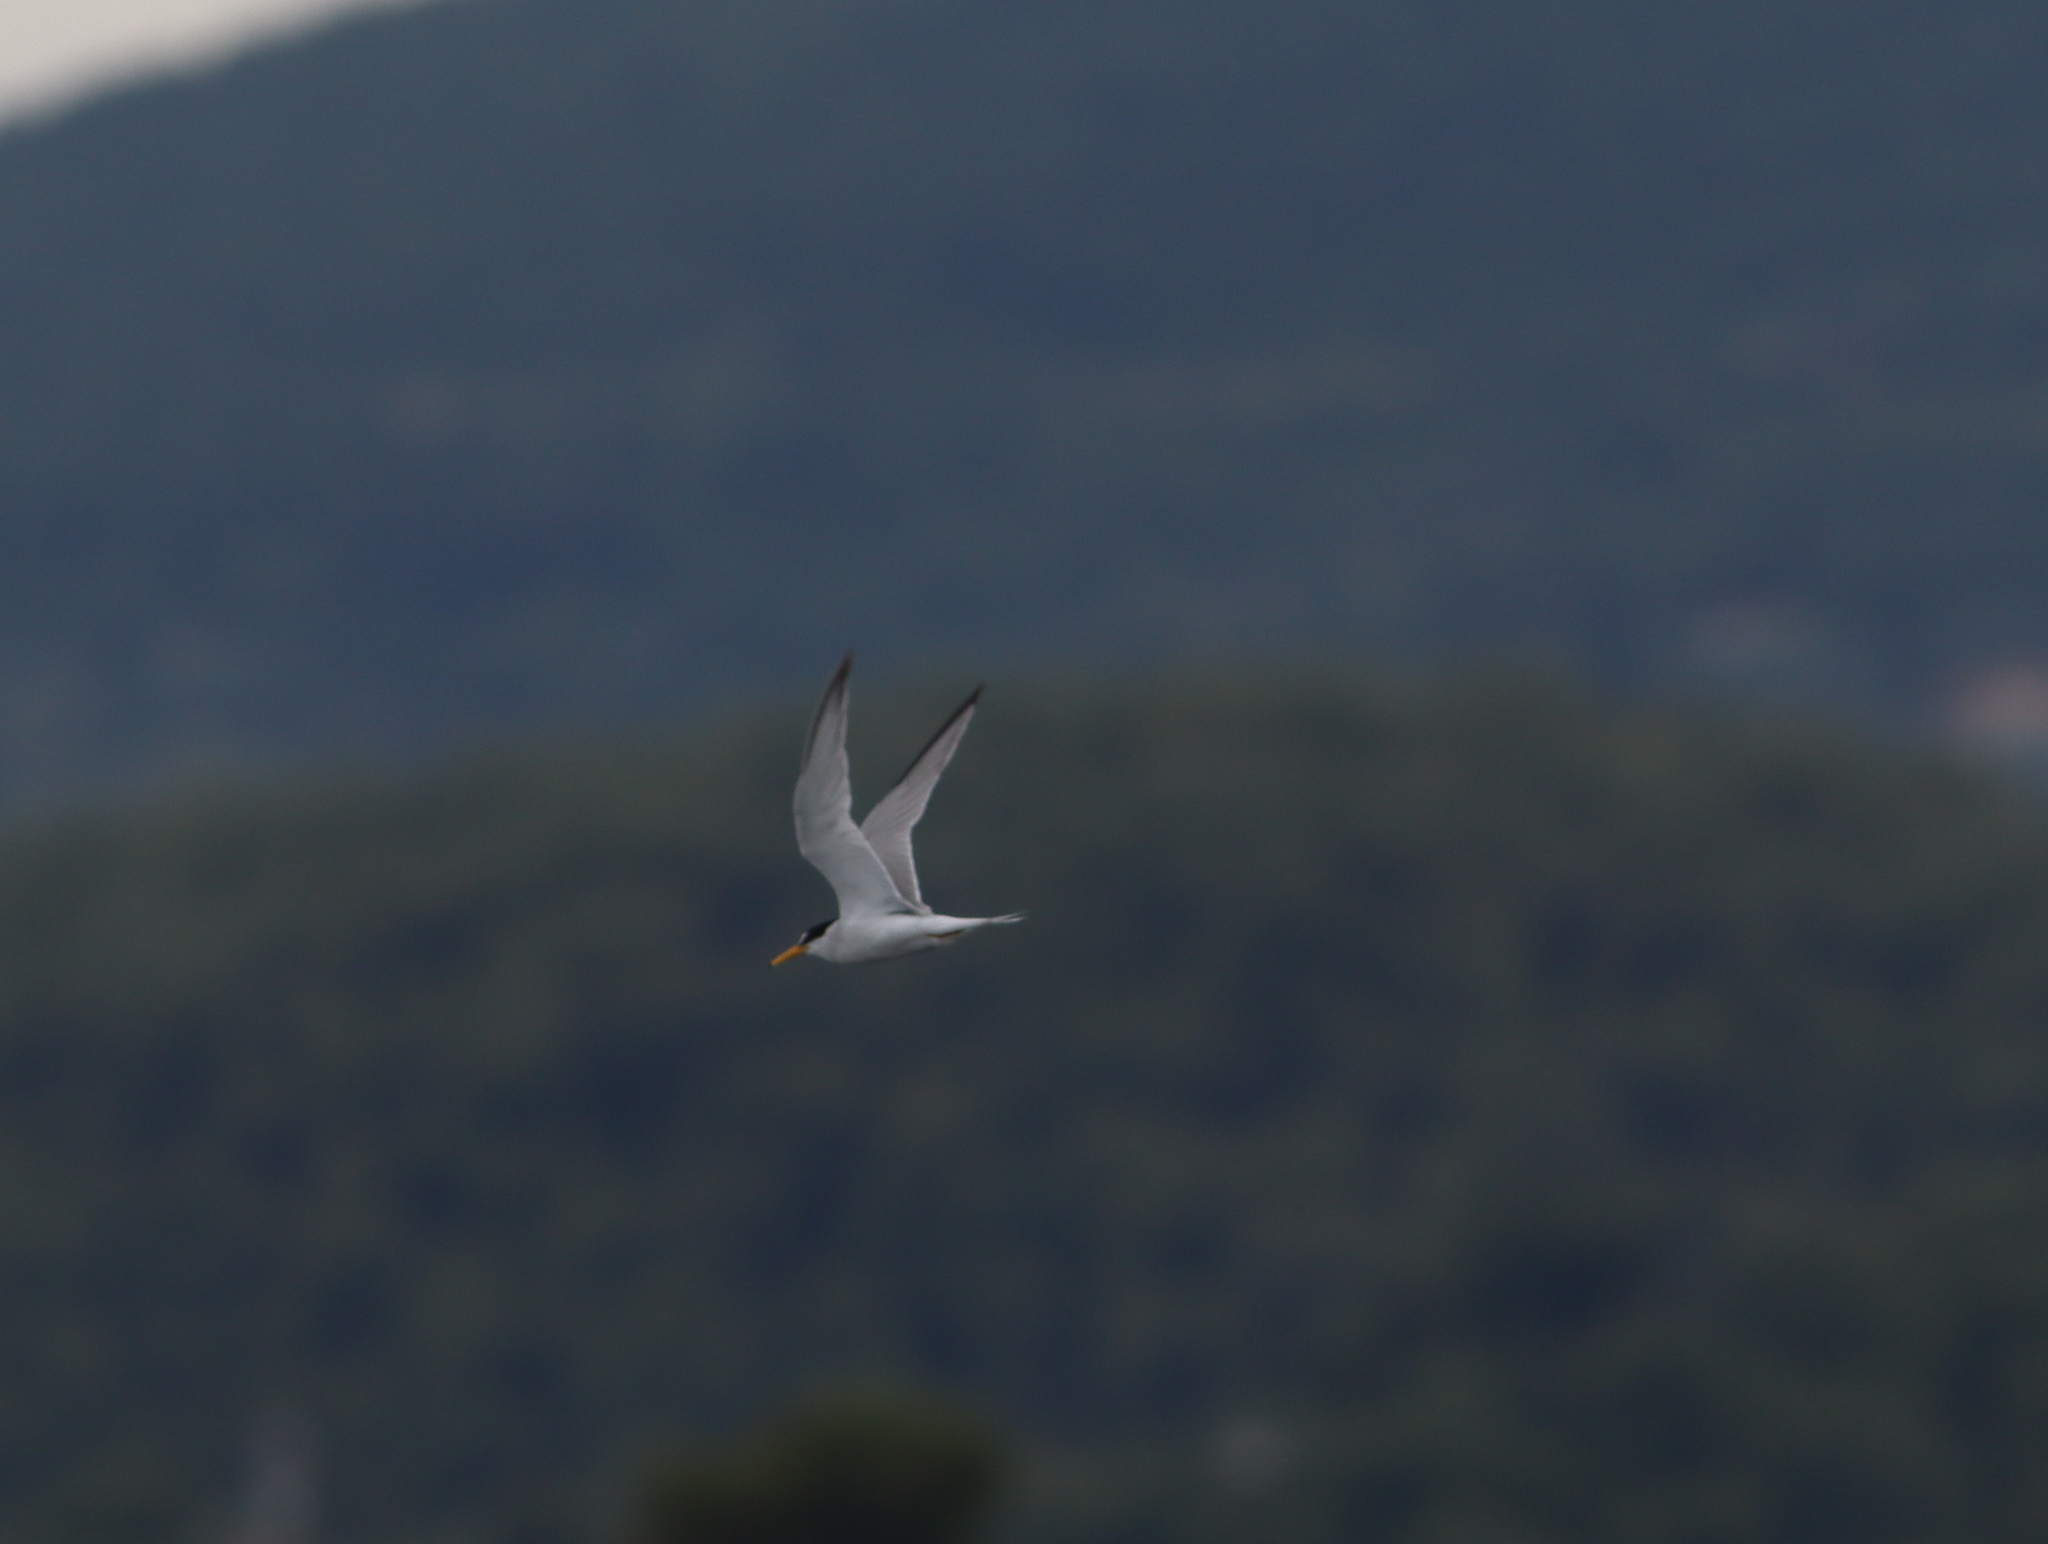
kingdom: Animalia
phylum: Chordata
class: Aves
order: Charadriiformes
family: Laridae
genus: Sternula
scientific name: Sternula albifrons
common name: Little tern
